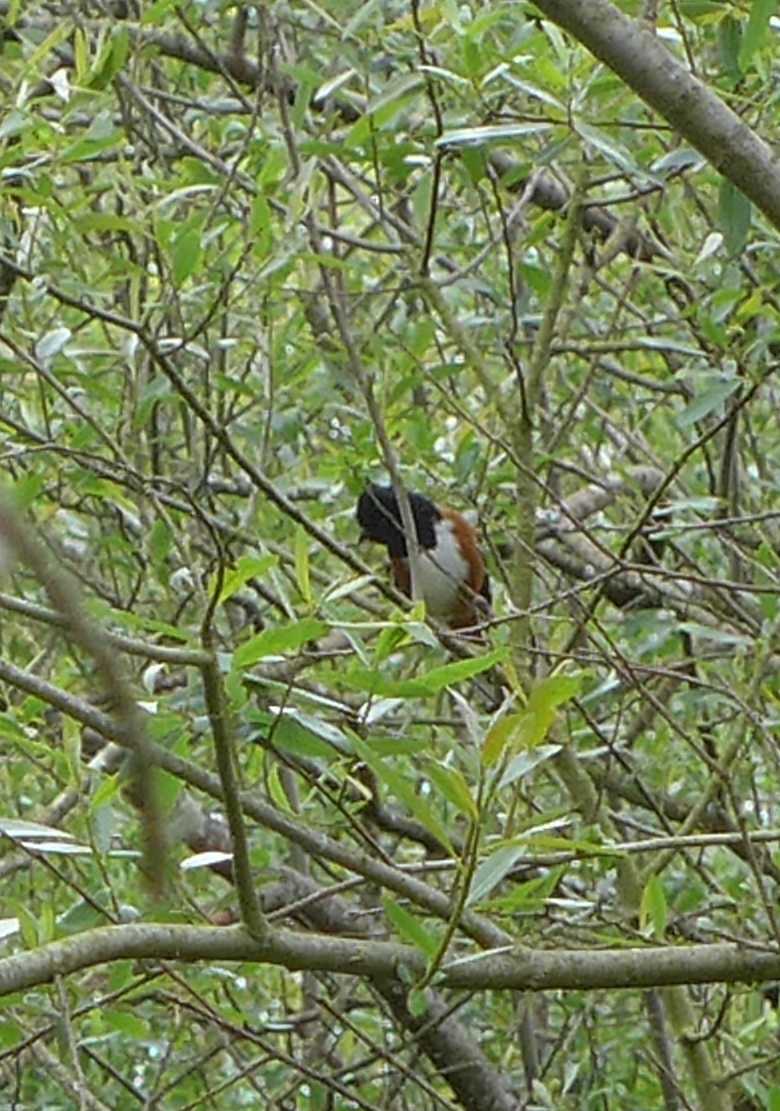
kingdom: Animalia
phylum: Chordata
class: Aves
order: Passeriformes
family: Passerellidae
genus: Pipilo
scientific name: Pipilo maculatus
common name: Spotted towhee
